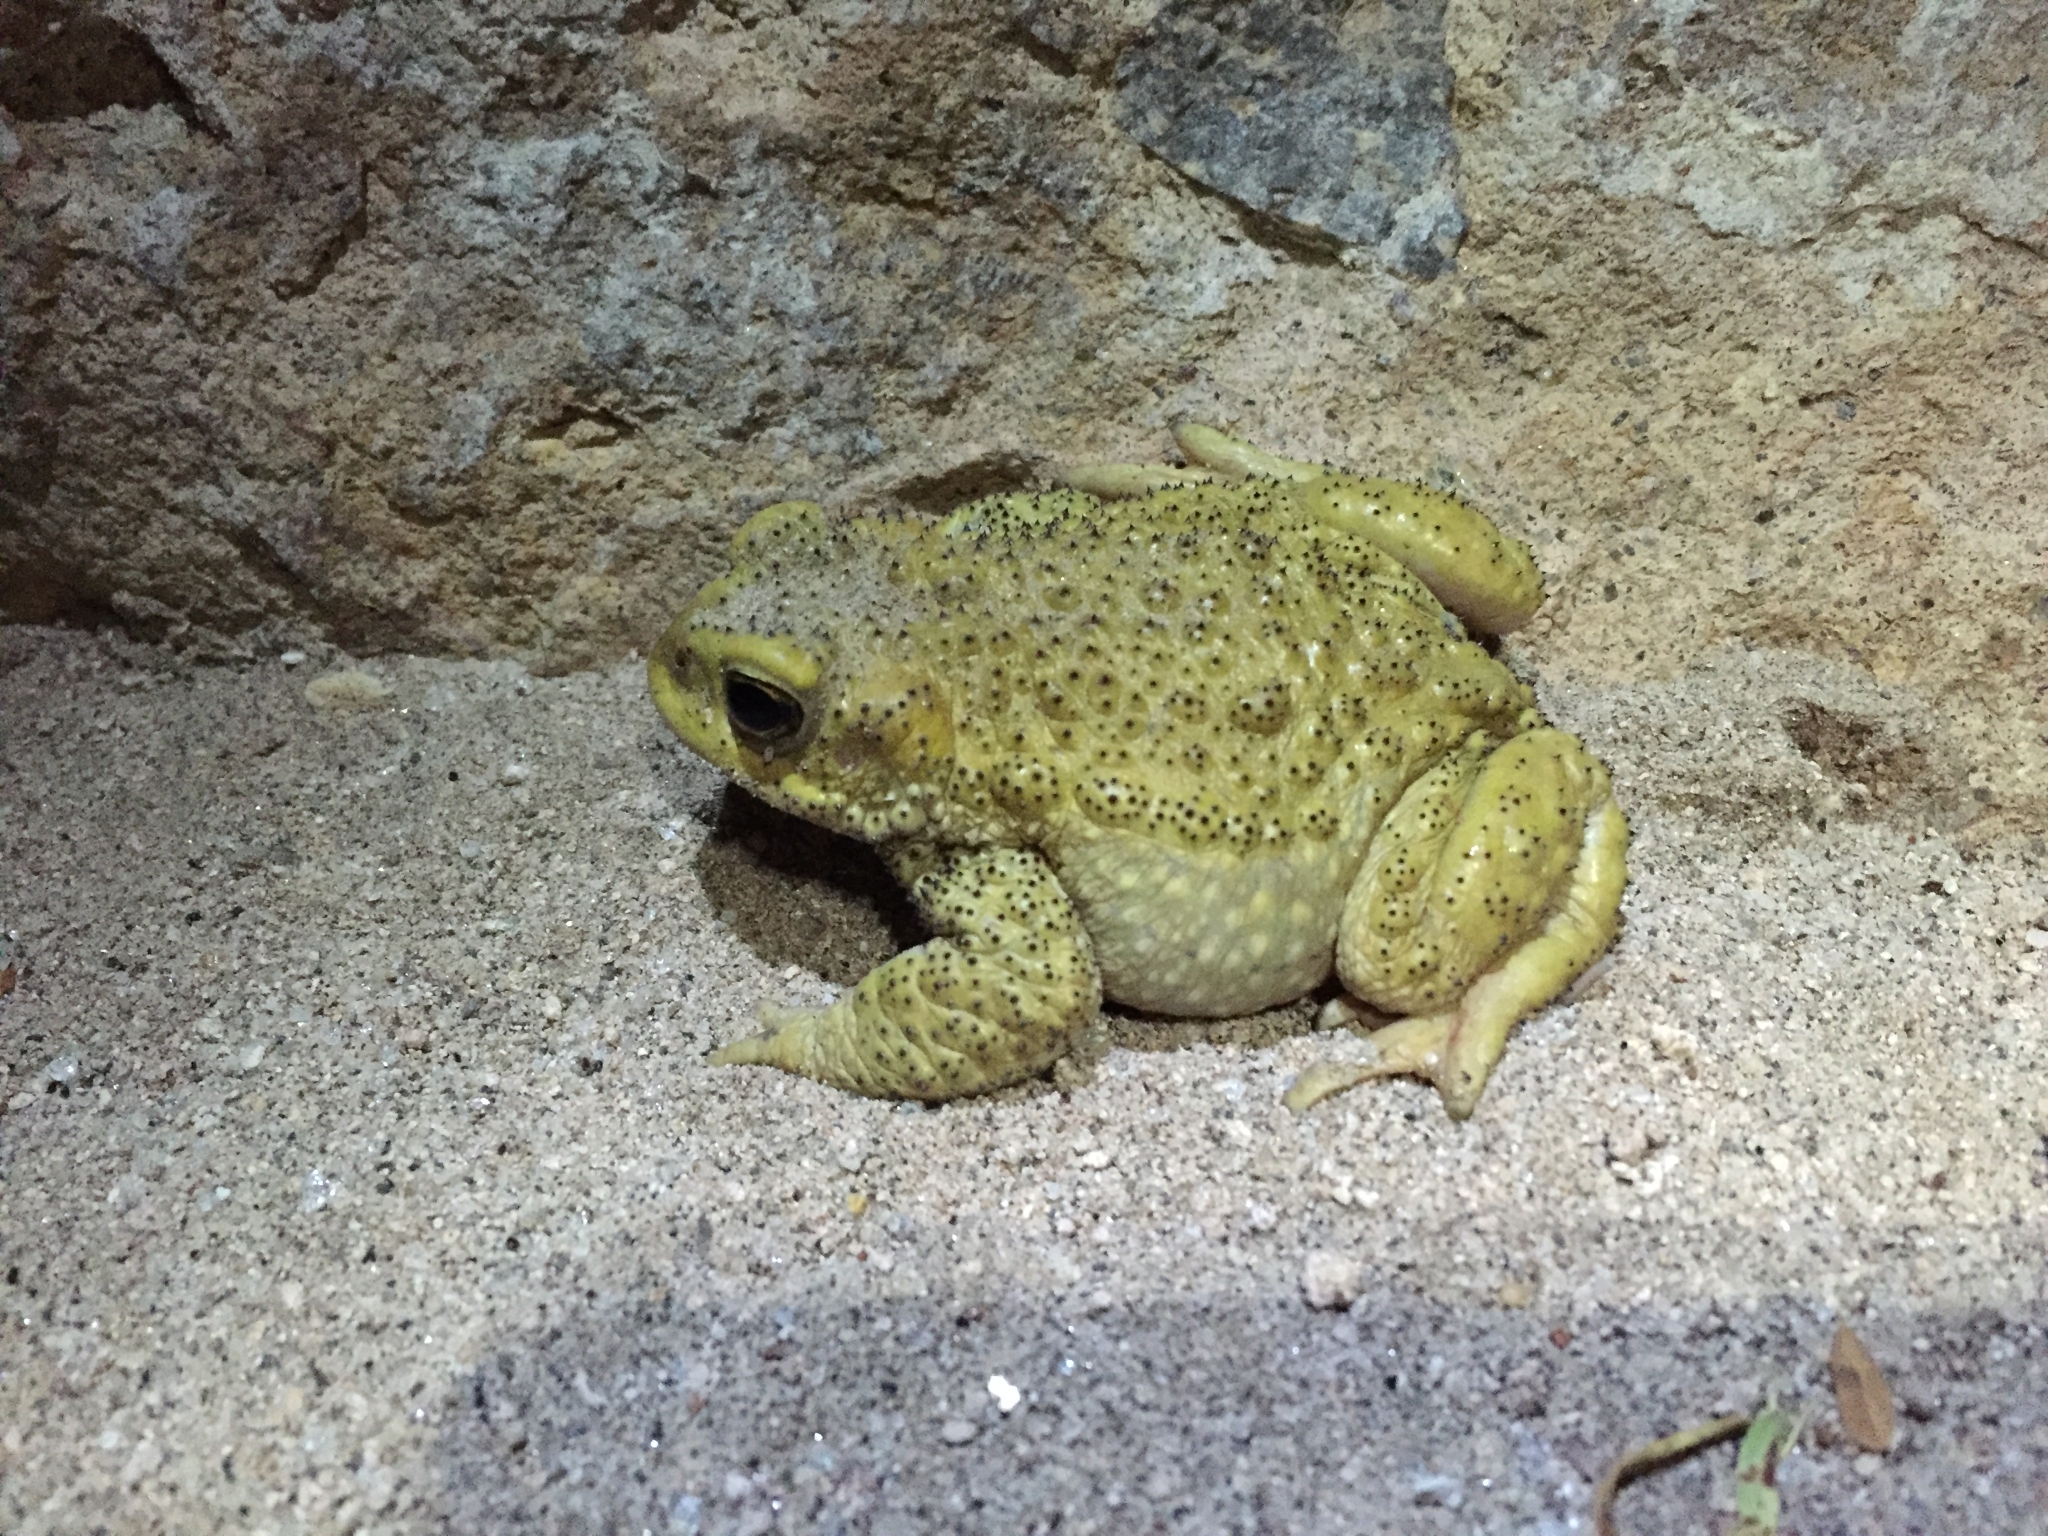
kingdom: Animalia
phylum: Chordata
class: Amphibia
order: Anura
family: Bufonidae
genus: Rhinella
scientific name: Rhinella spinulosa
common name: Warty toad
